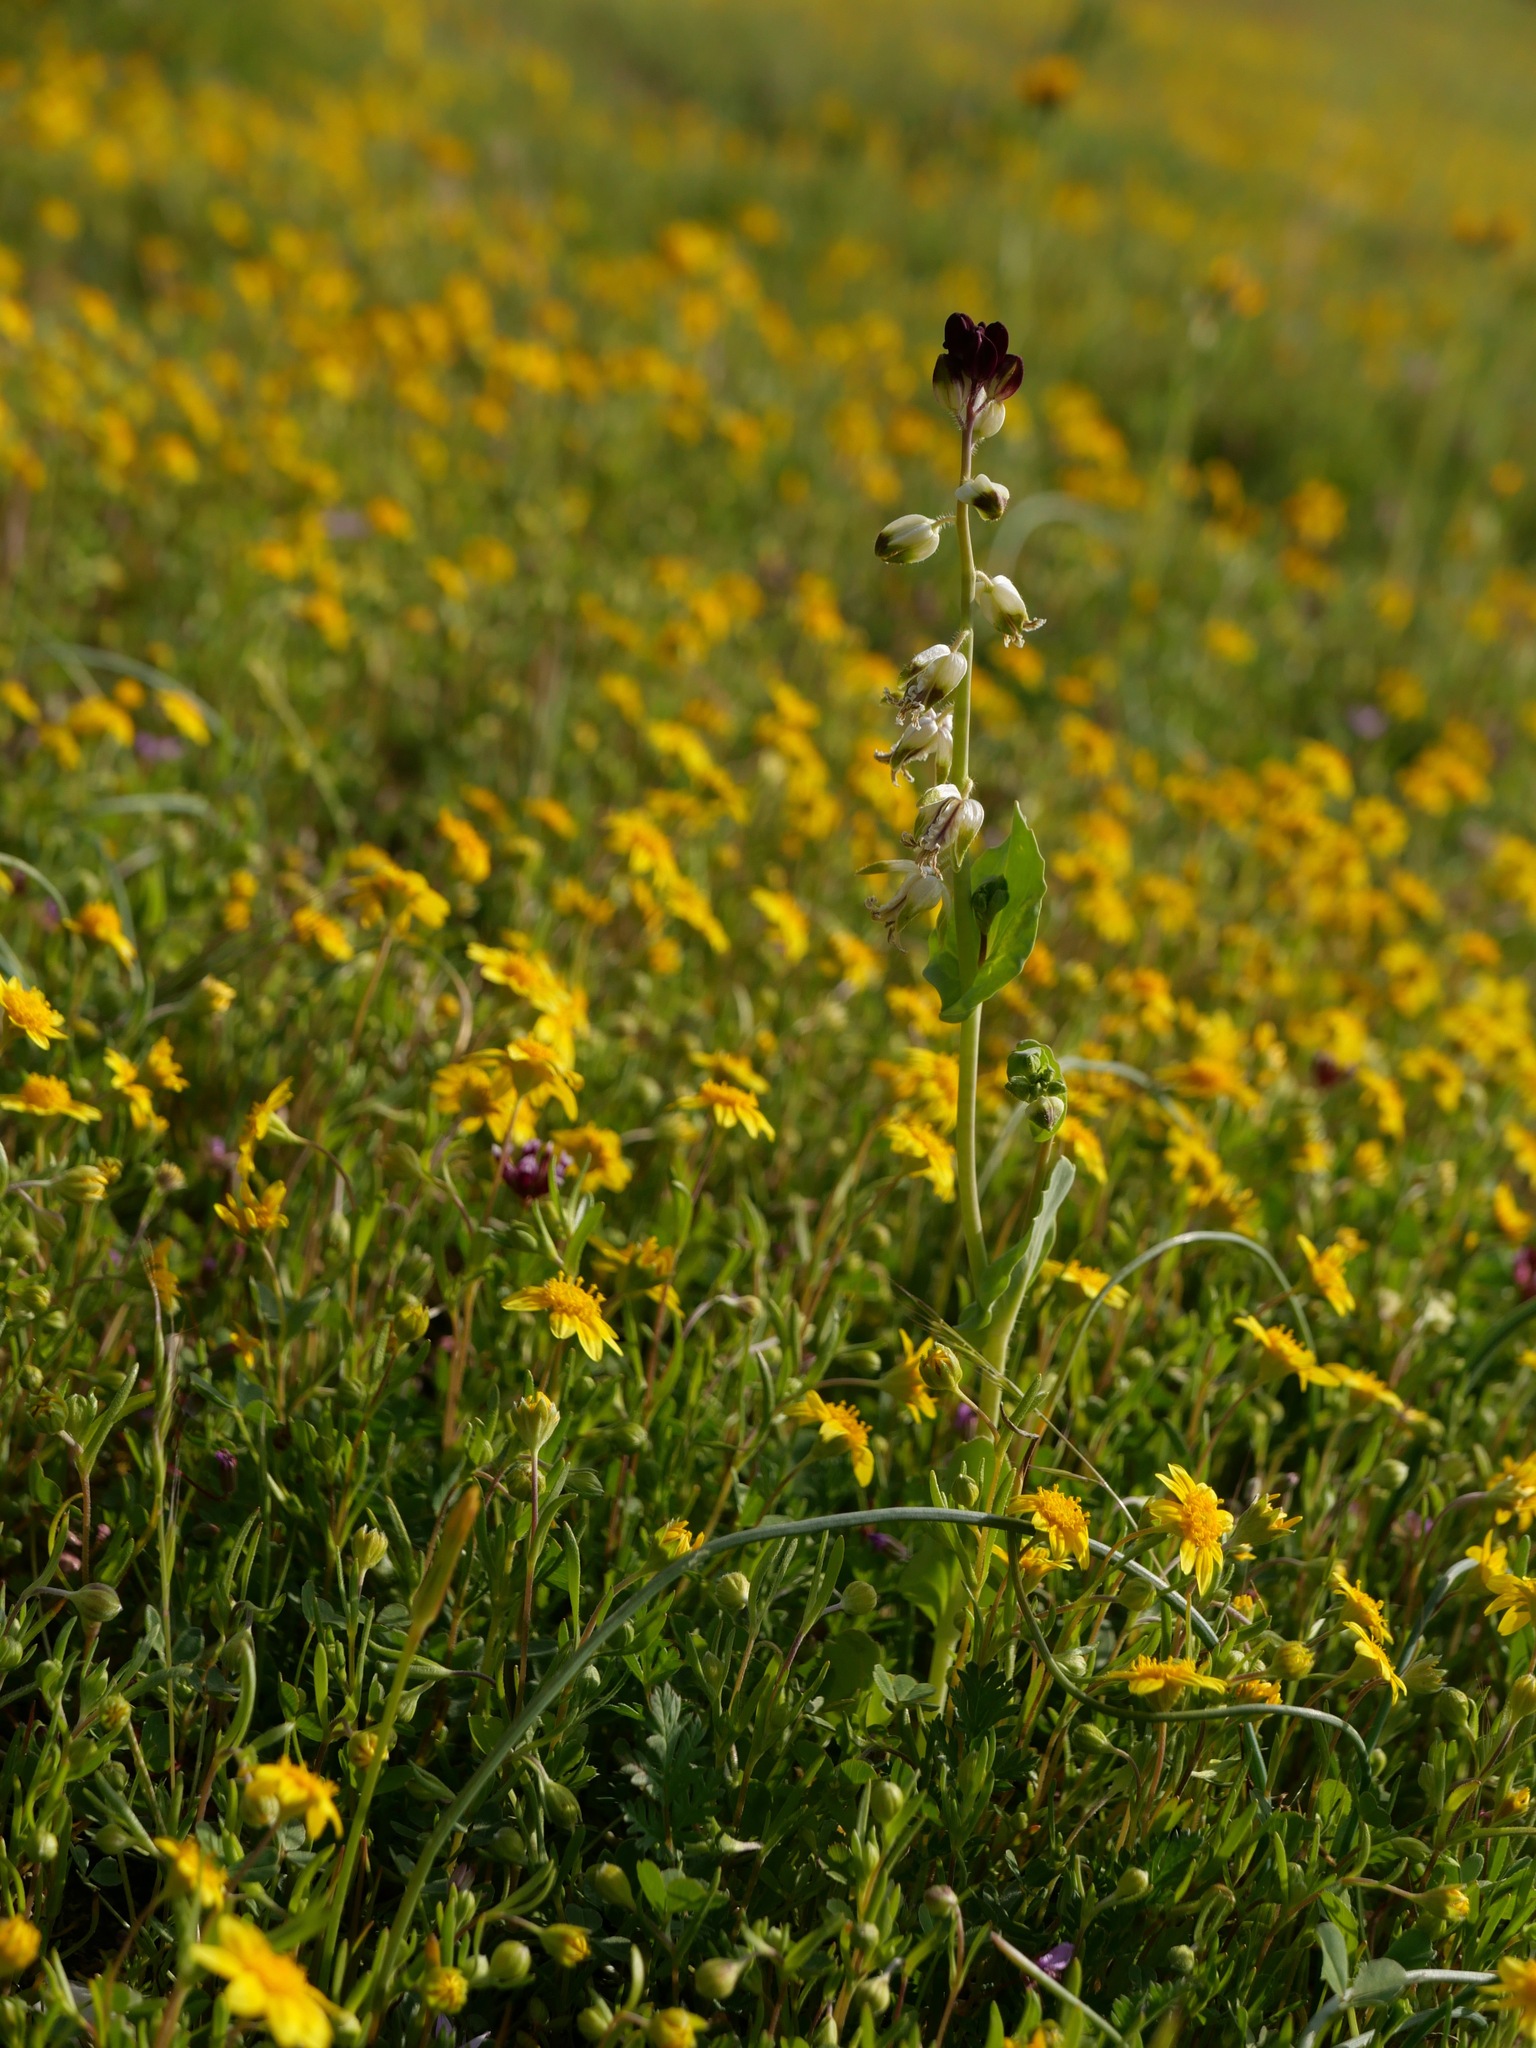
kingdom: Plantae
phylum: Tracheophyta
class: Magnoliopsida
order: Brassicales
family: Brassicaceae
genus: Streptanthus
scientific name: Streptanthus californicus
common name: California-jewel-flower
